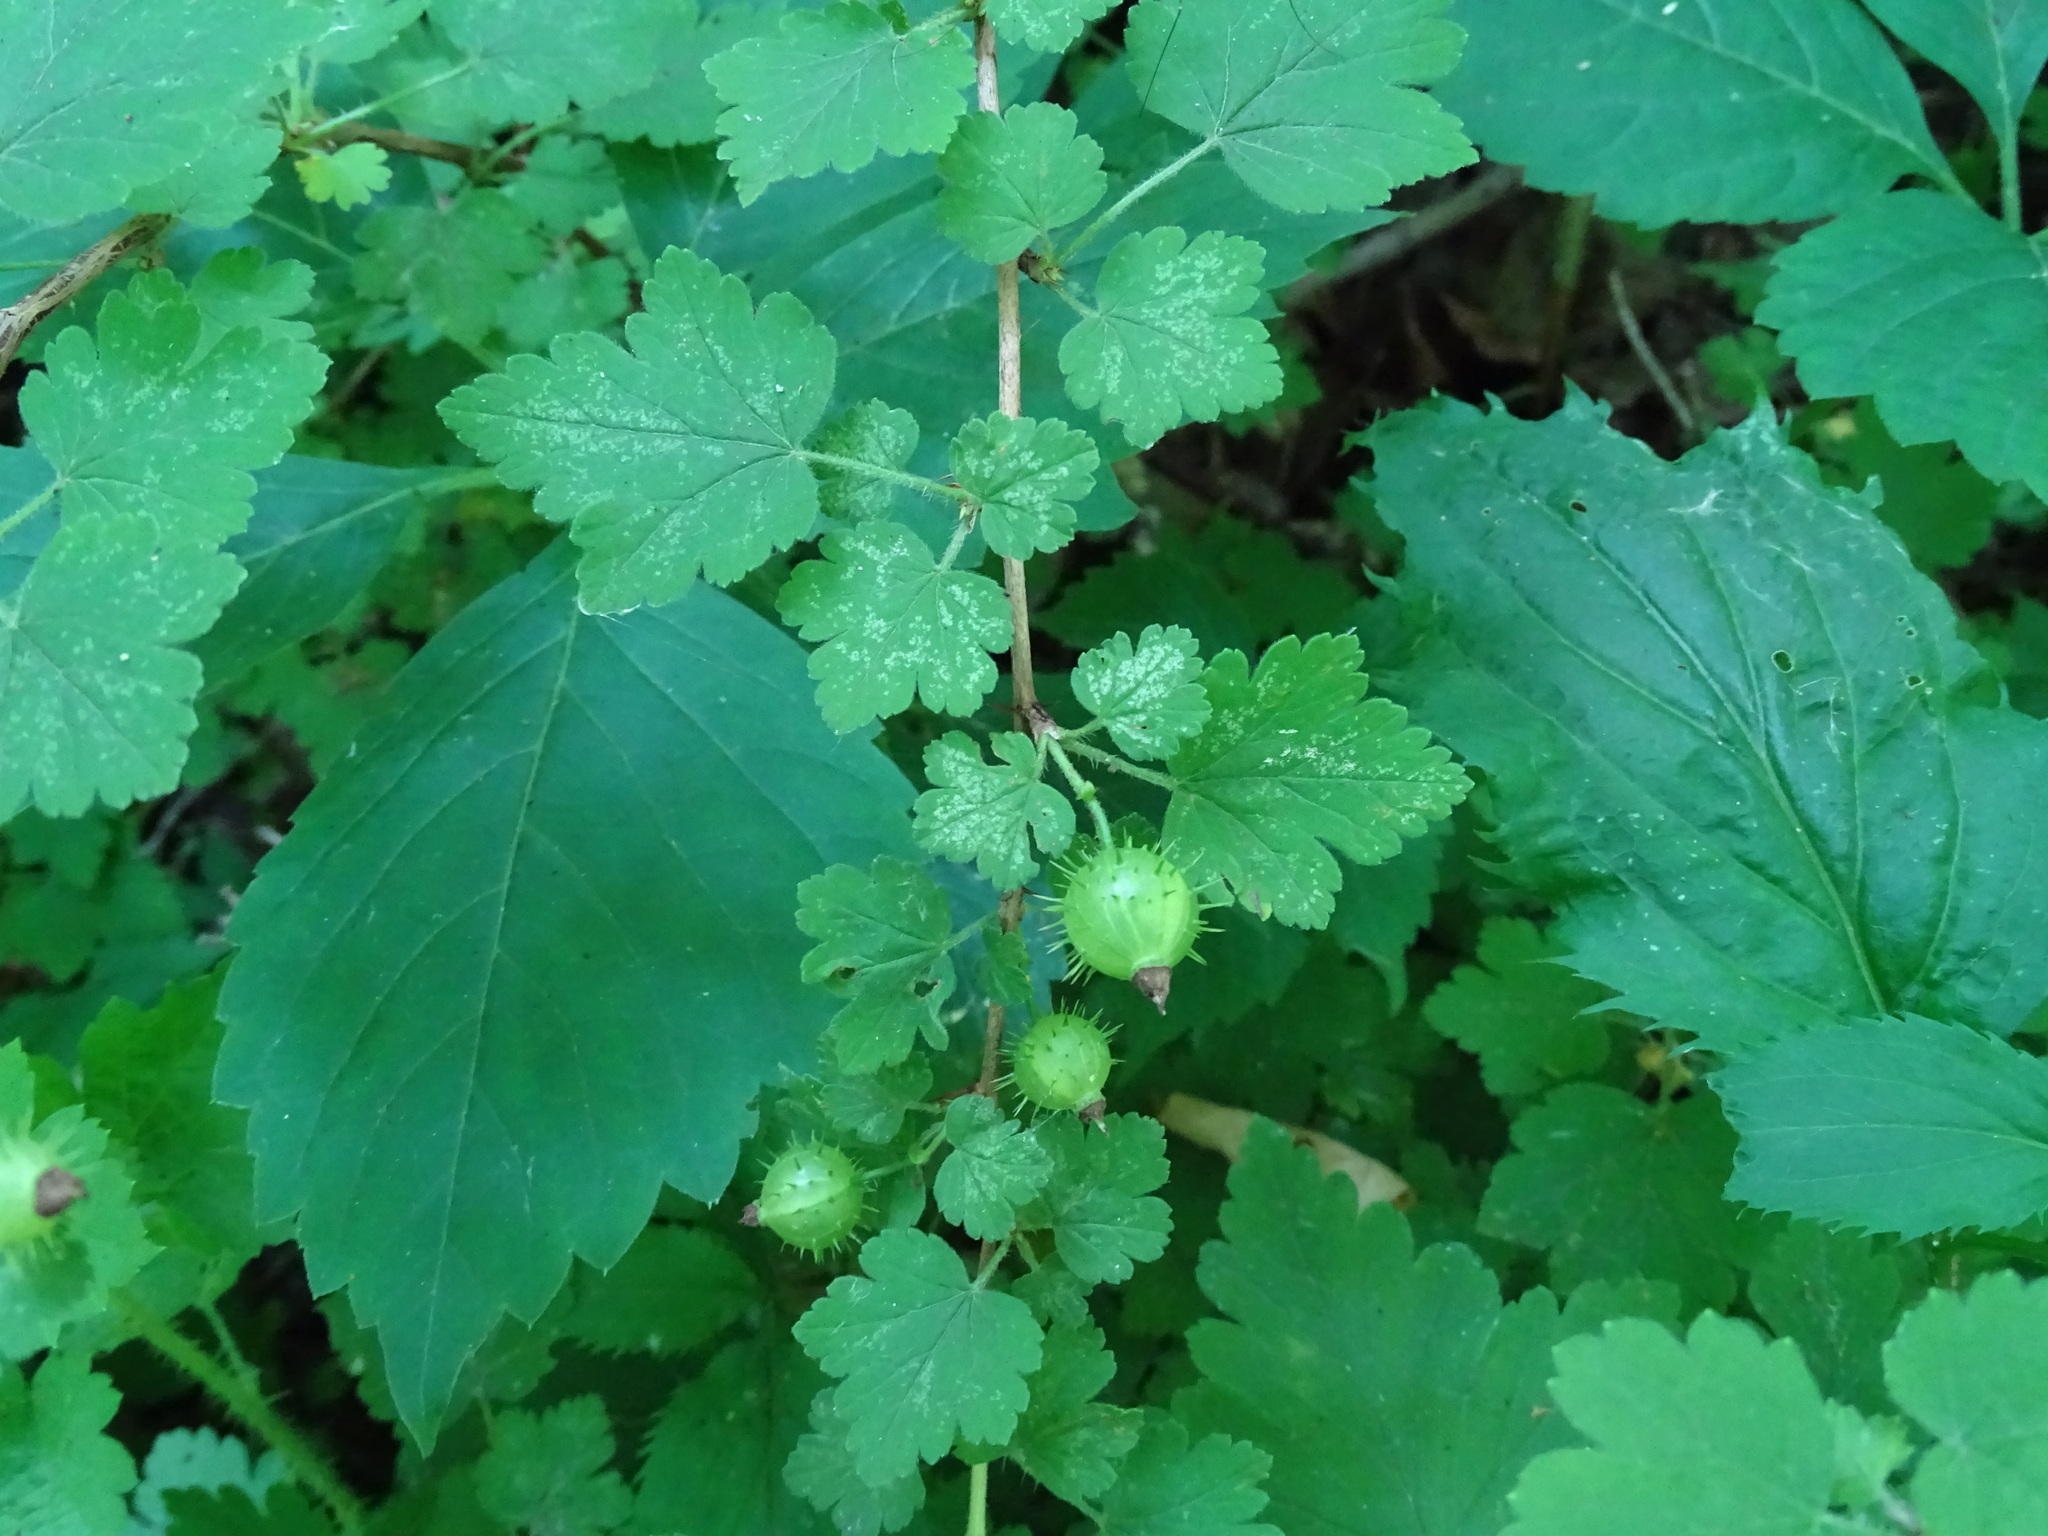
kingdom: Plantae
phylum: Tracheophyta
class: Magnoliopsida
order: Saxifragales
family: Grossulariaceae
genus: Ribes
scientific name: Ribes cynosbati
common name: American gooseberry
